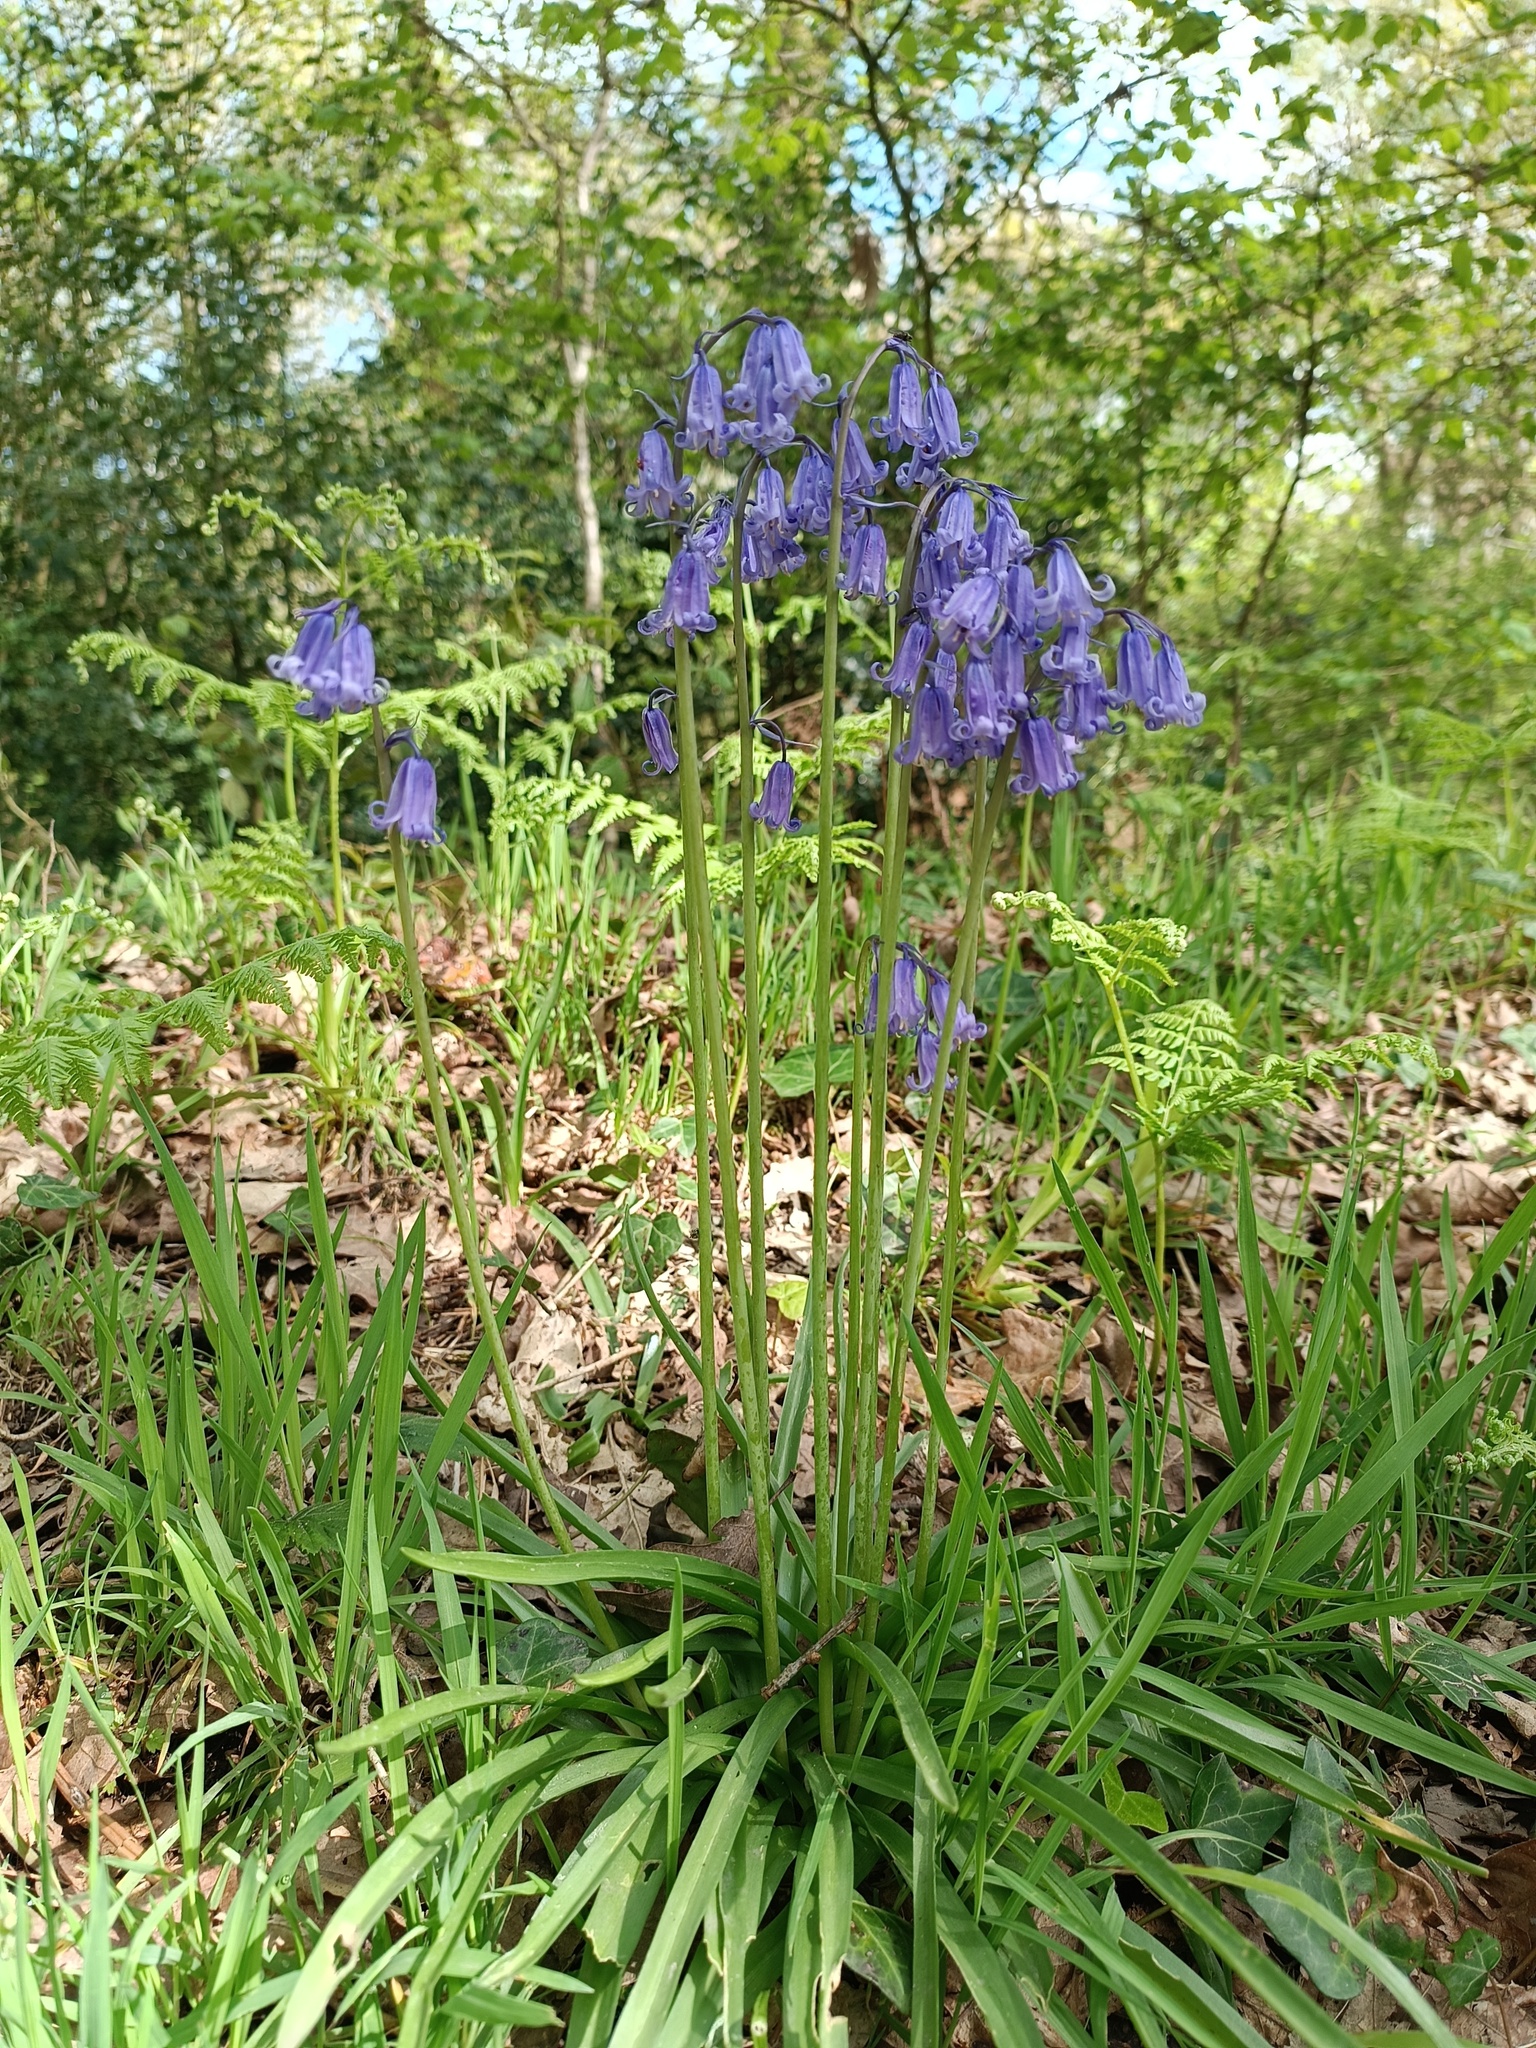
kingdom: Plantae
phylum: Tracheophyta
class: Liliopsida
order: Asparagales
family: Asparagaceae
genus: Hyacinthoides
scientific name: Hyacinthoides non-scripta
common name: Bluebell
